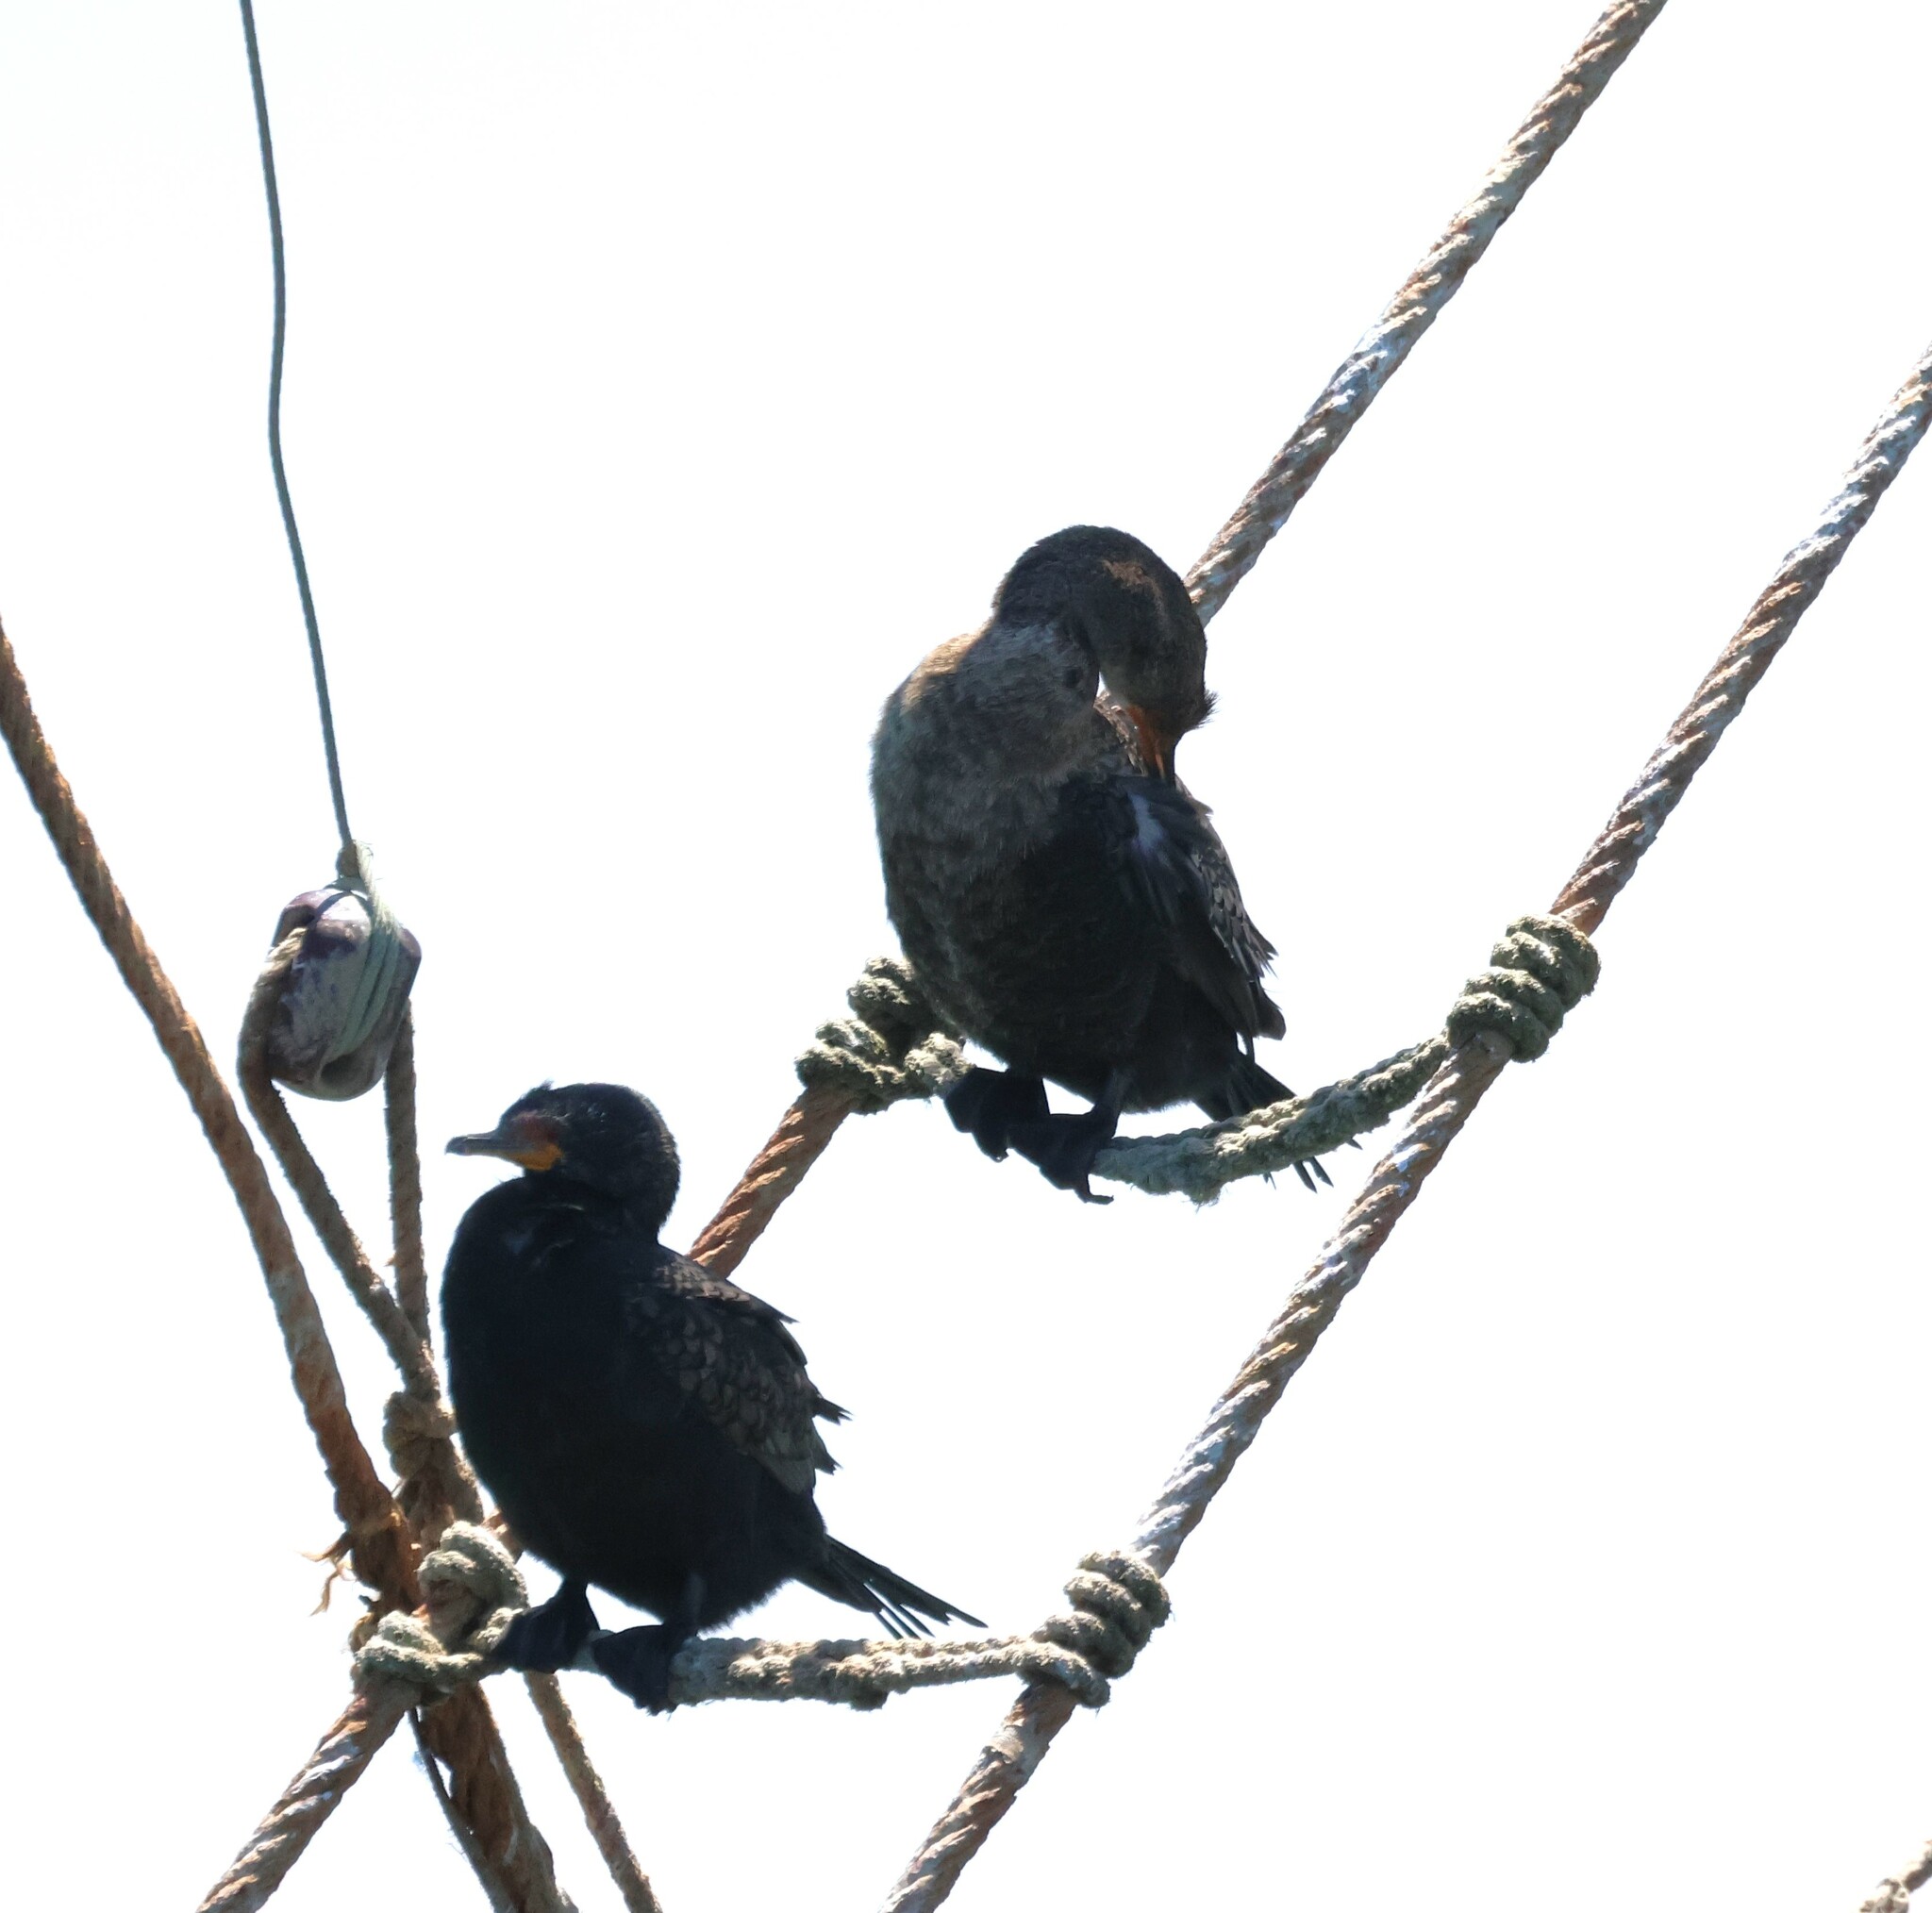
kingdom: Animalia
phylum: Chordata
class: Aves
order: Suliformes
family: Phalacrocoracidae
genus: Microcarbo
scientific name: Microcarbo coronatus
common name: Crowned cormorant
